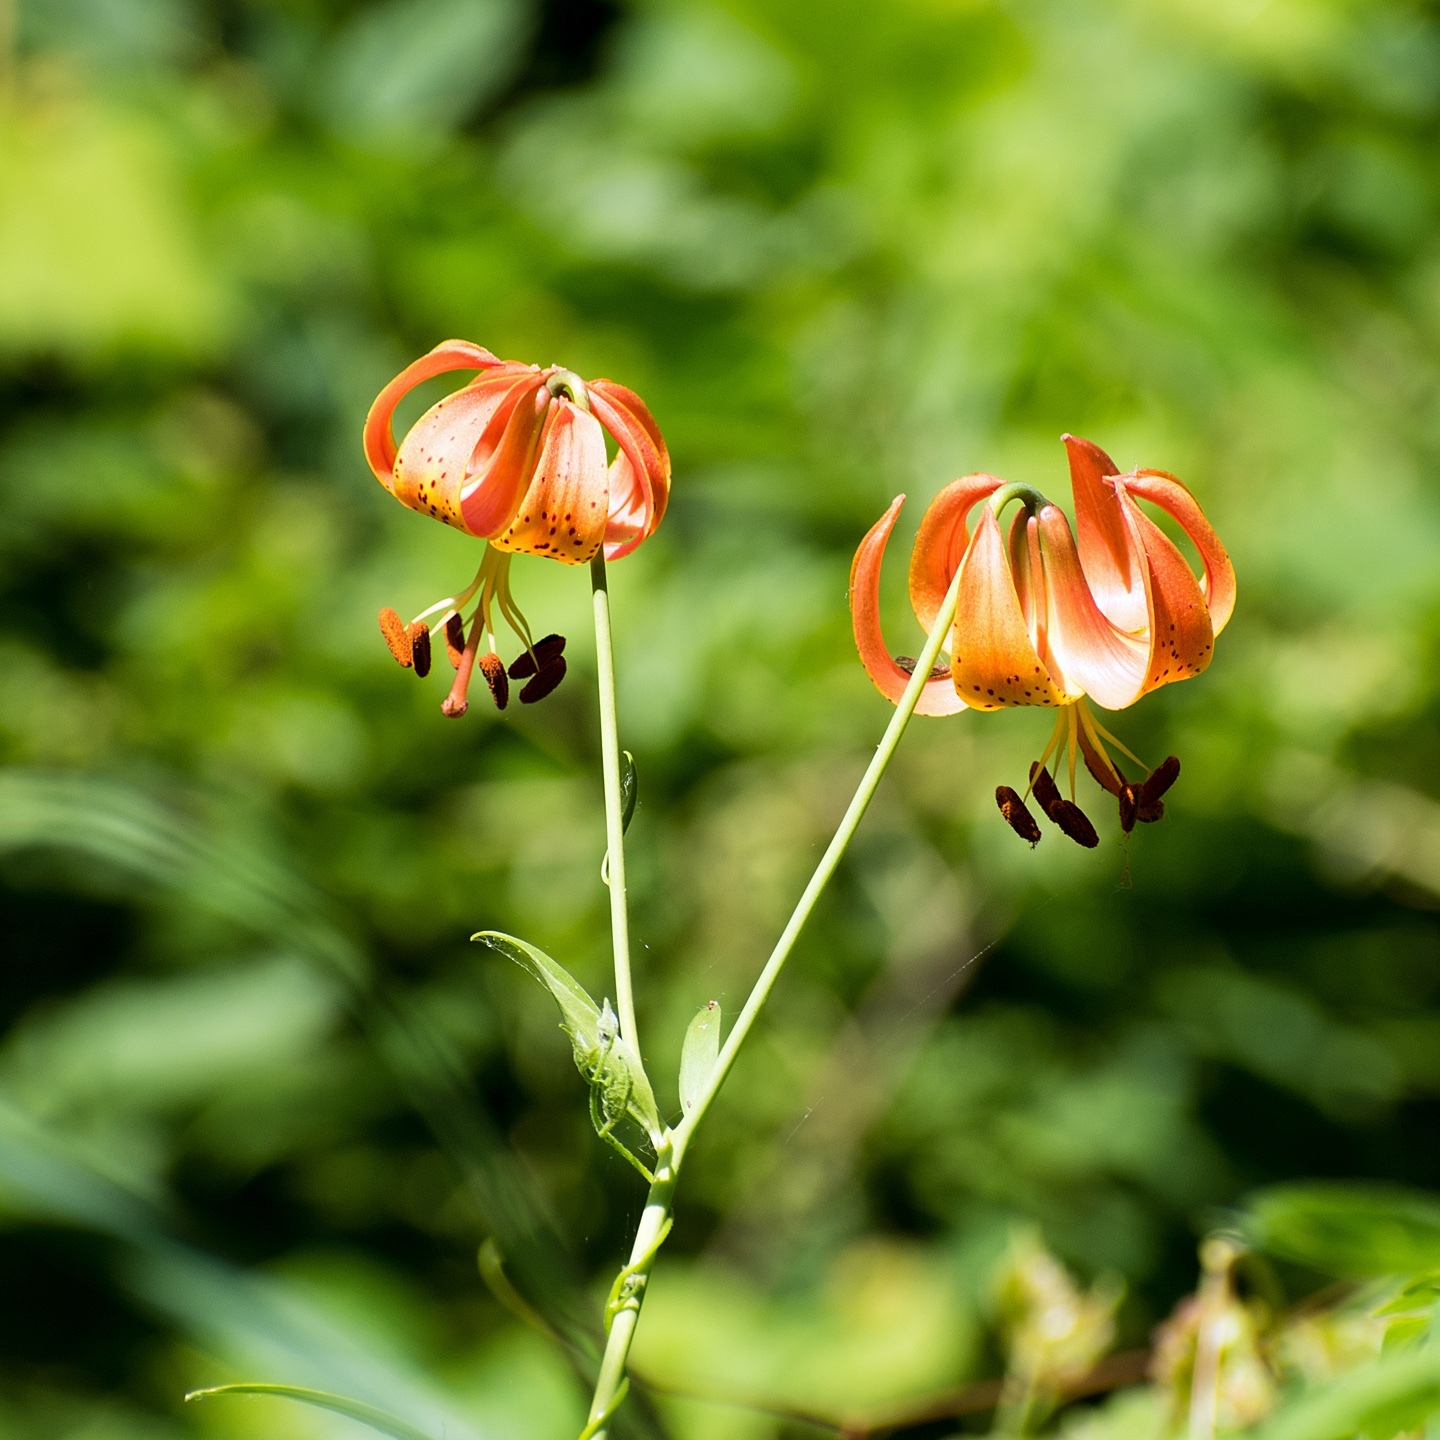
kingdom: Plantae
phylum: Tracheophyta
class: Liliopsida
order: Liliales
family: Liliaceae
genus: Lilium
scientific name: Lilium michiganense
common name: Michigan lily
